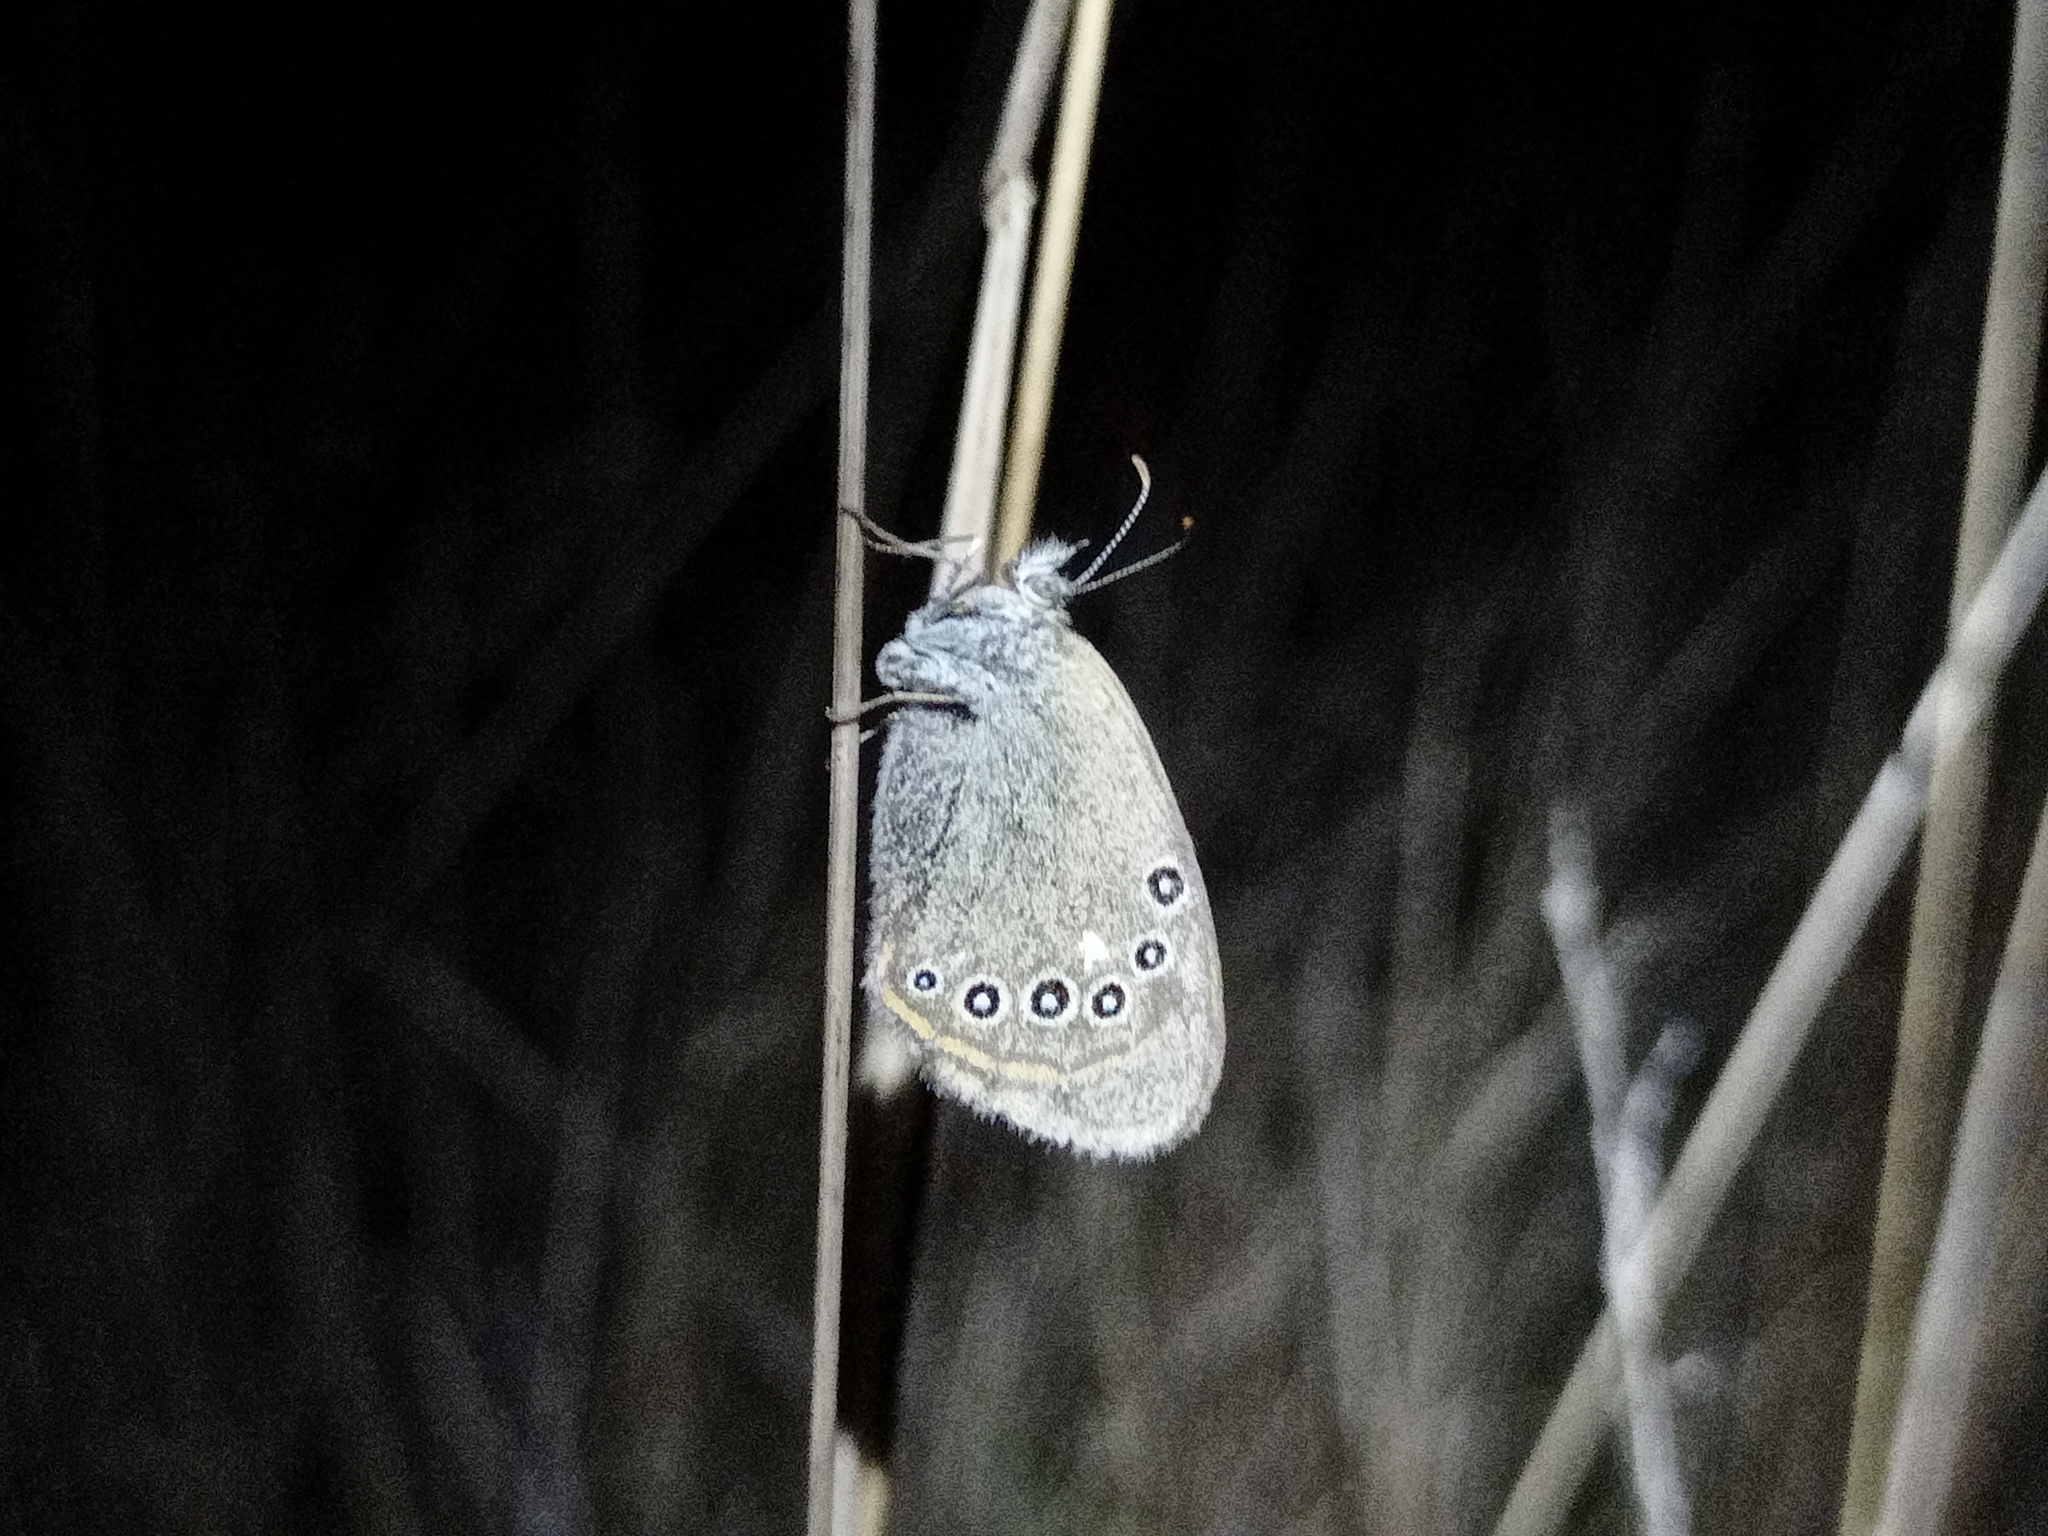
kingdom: Animalia
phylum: Arthropoda
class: Insecta
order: Lepidoptera
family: Nymphalidae
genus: Coenonympha
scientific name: Coenonympha iphis
